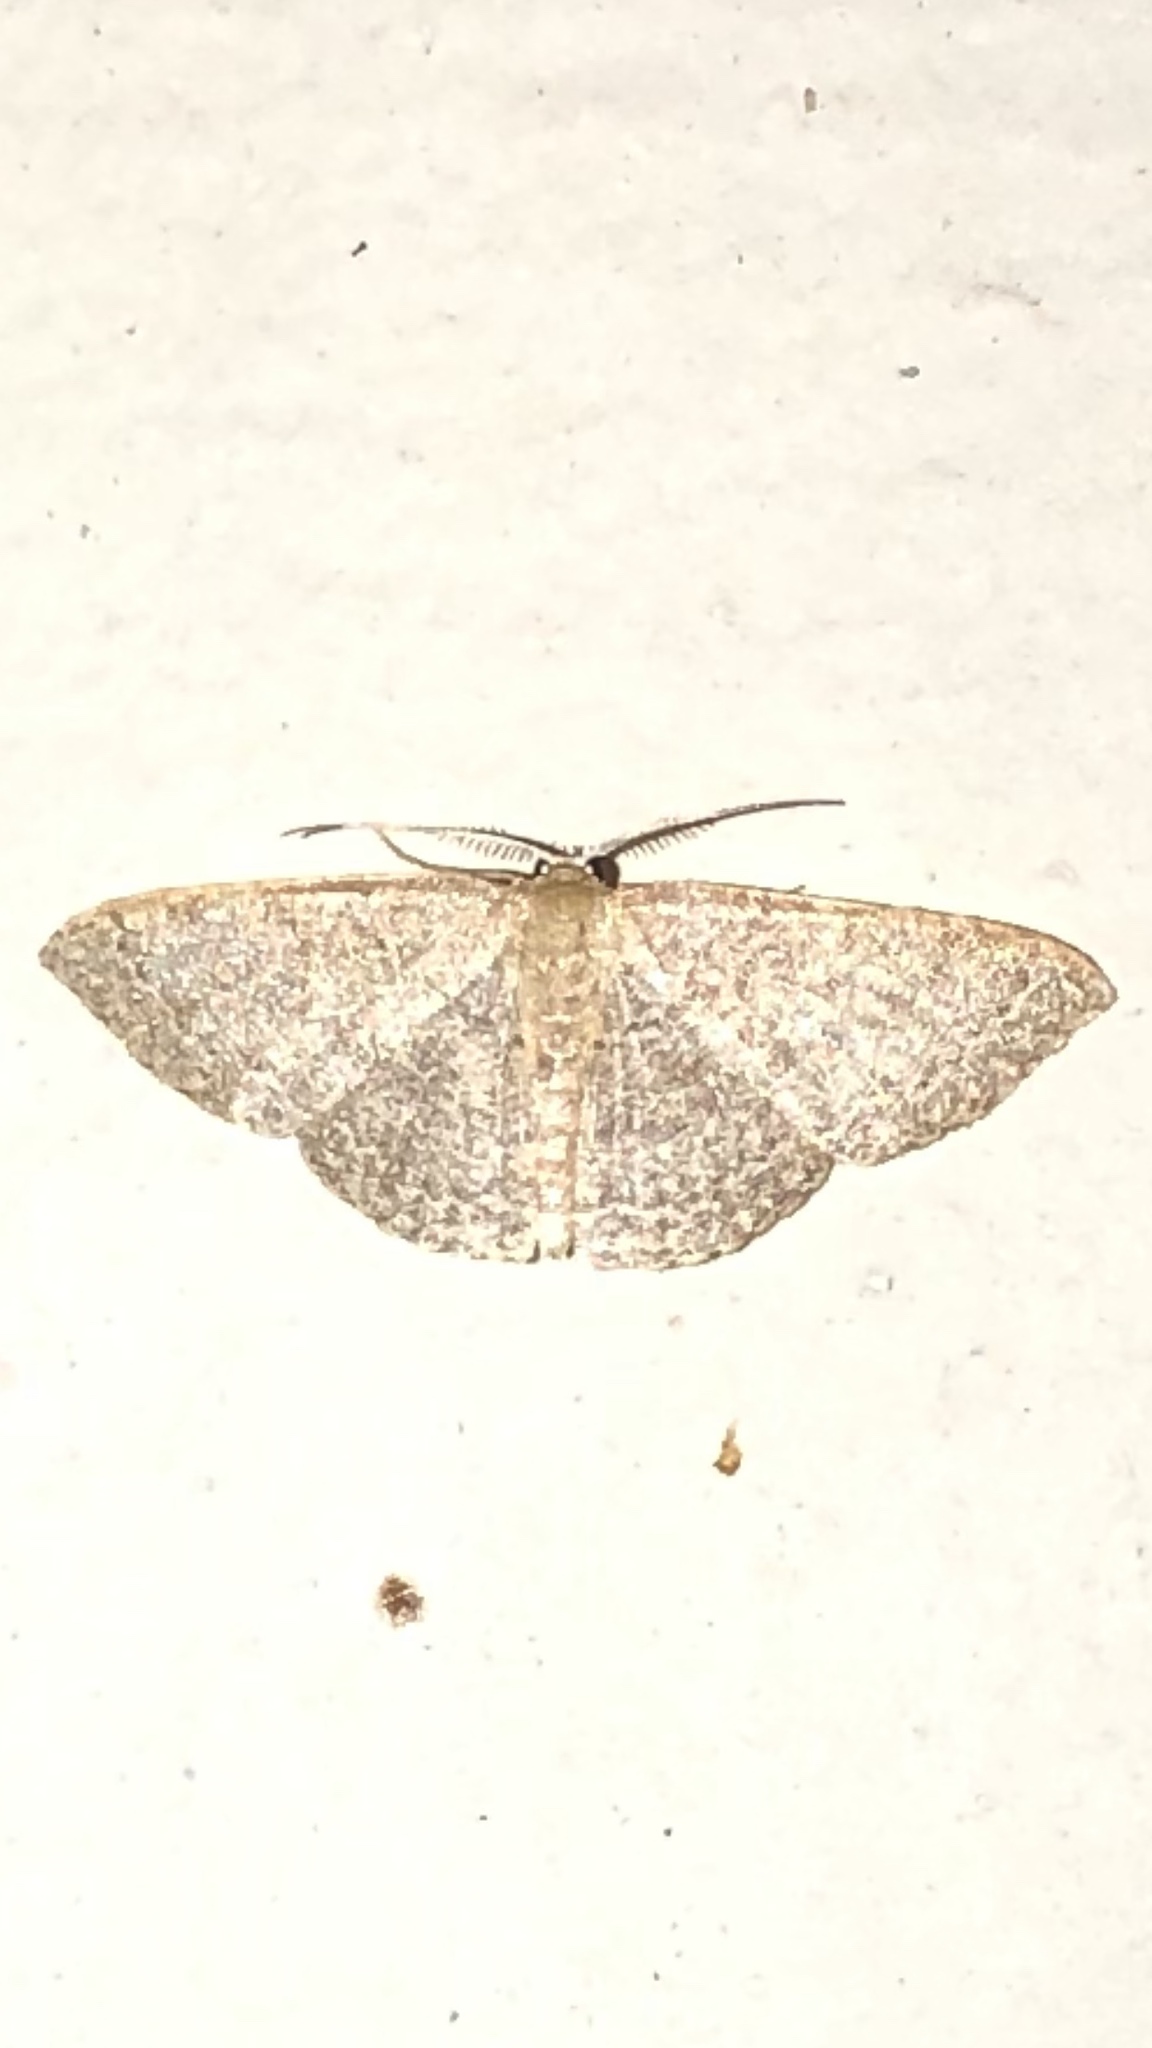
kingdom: Animalia
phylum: Arthropoda
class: Insecta
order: Lepidoptera
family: Geometridae
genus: Pleuroprucha
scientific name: Pleuroprucha insulsaria
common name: Common tan wave
